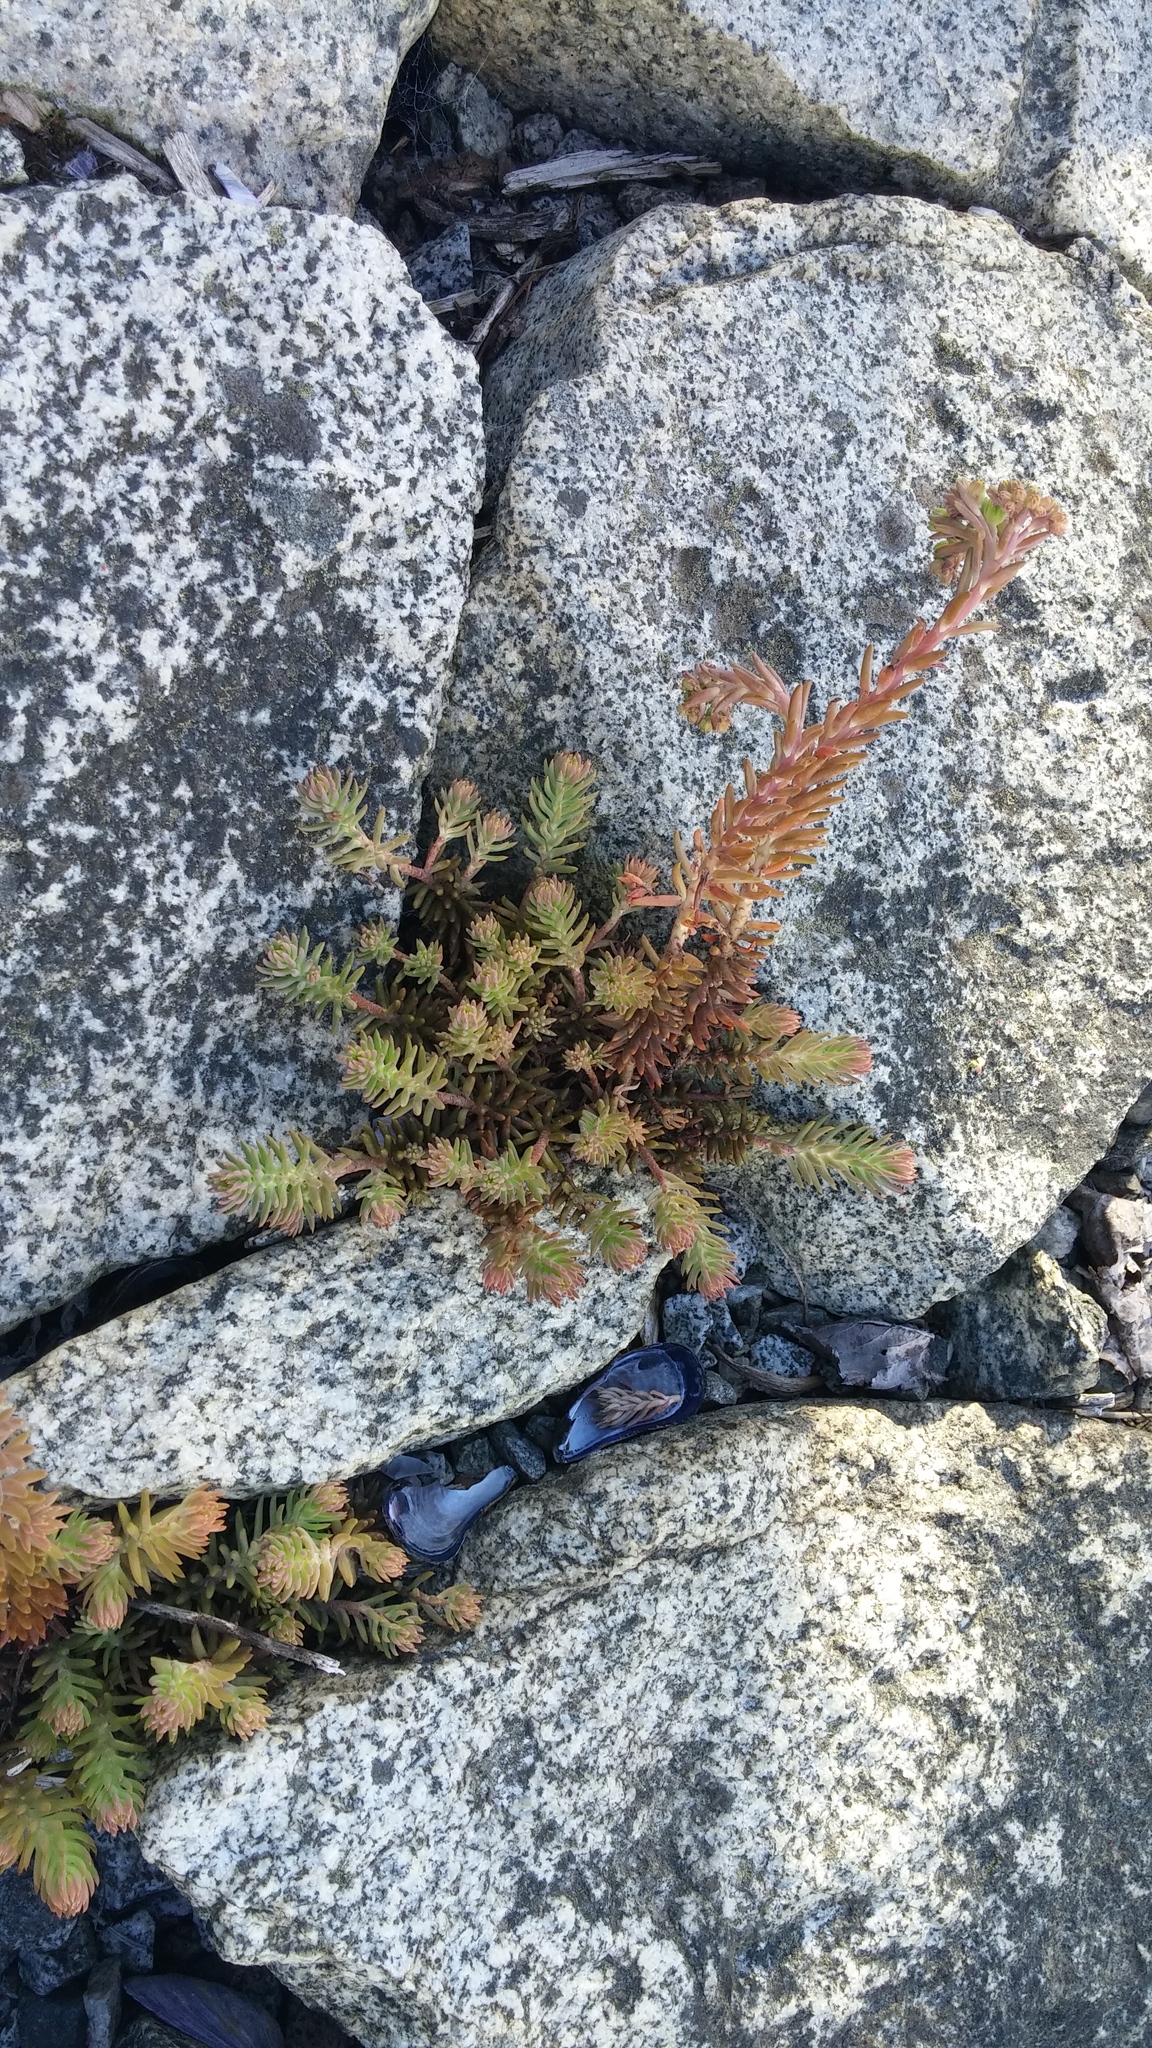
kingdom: Plantae
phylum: Tracheophyta
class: Magnoliopsida
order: Saxifragales
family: Crassulaceae
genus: Petrosedum
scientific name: Petrosedum rupestre
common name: Jenny's stonecrop
